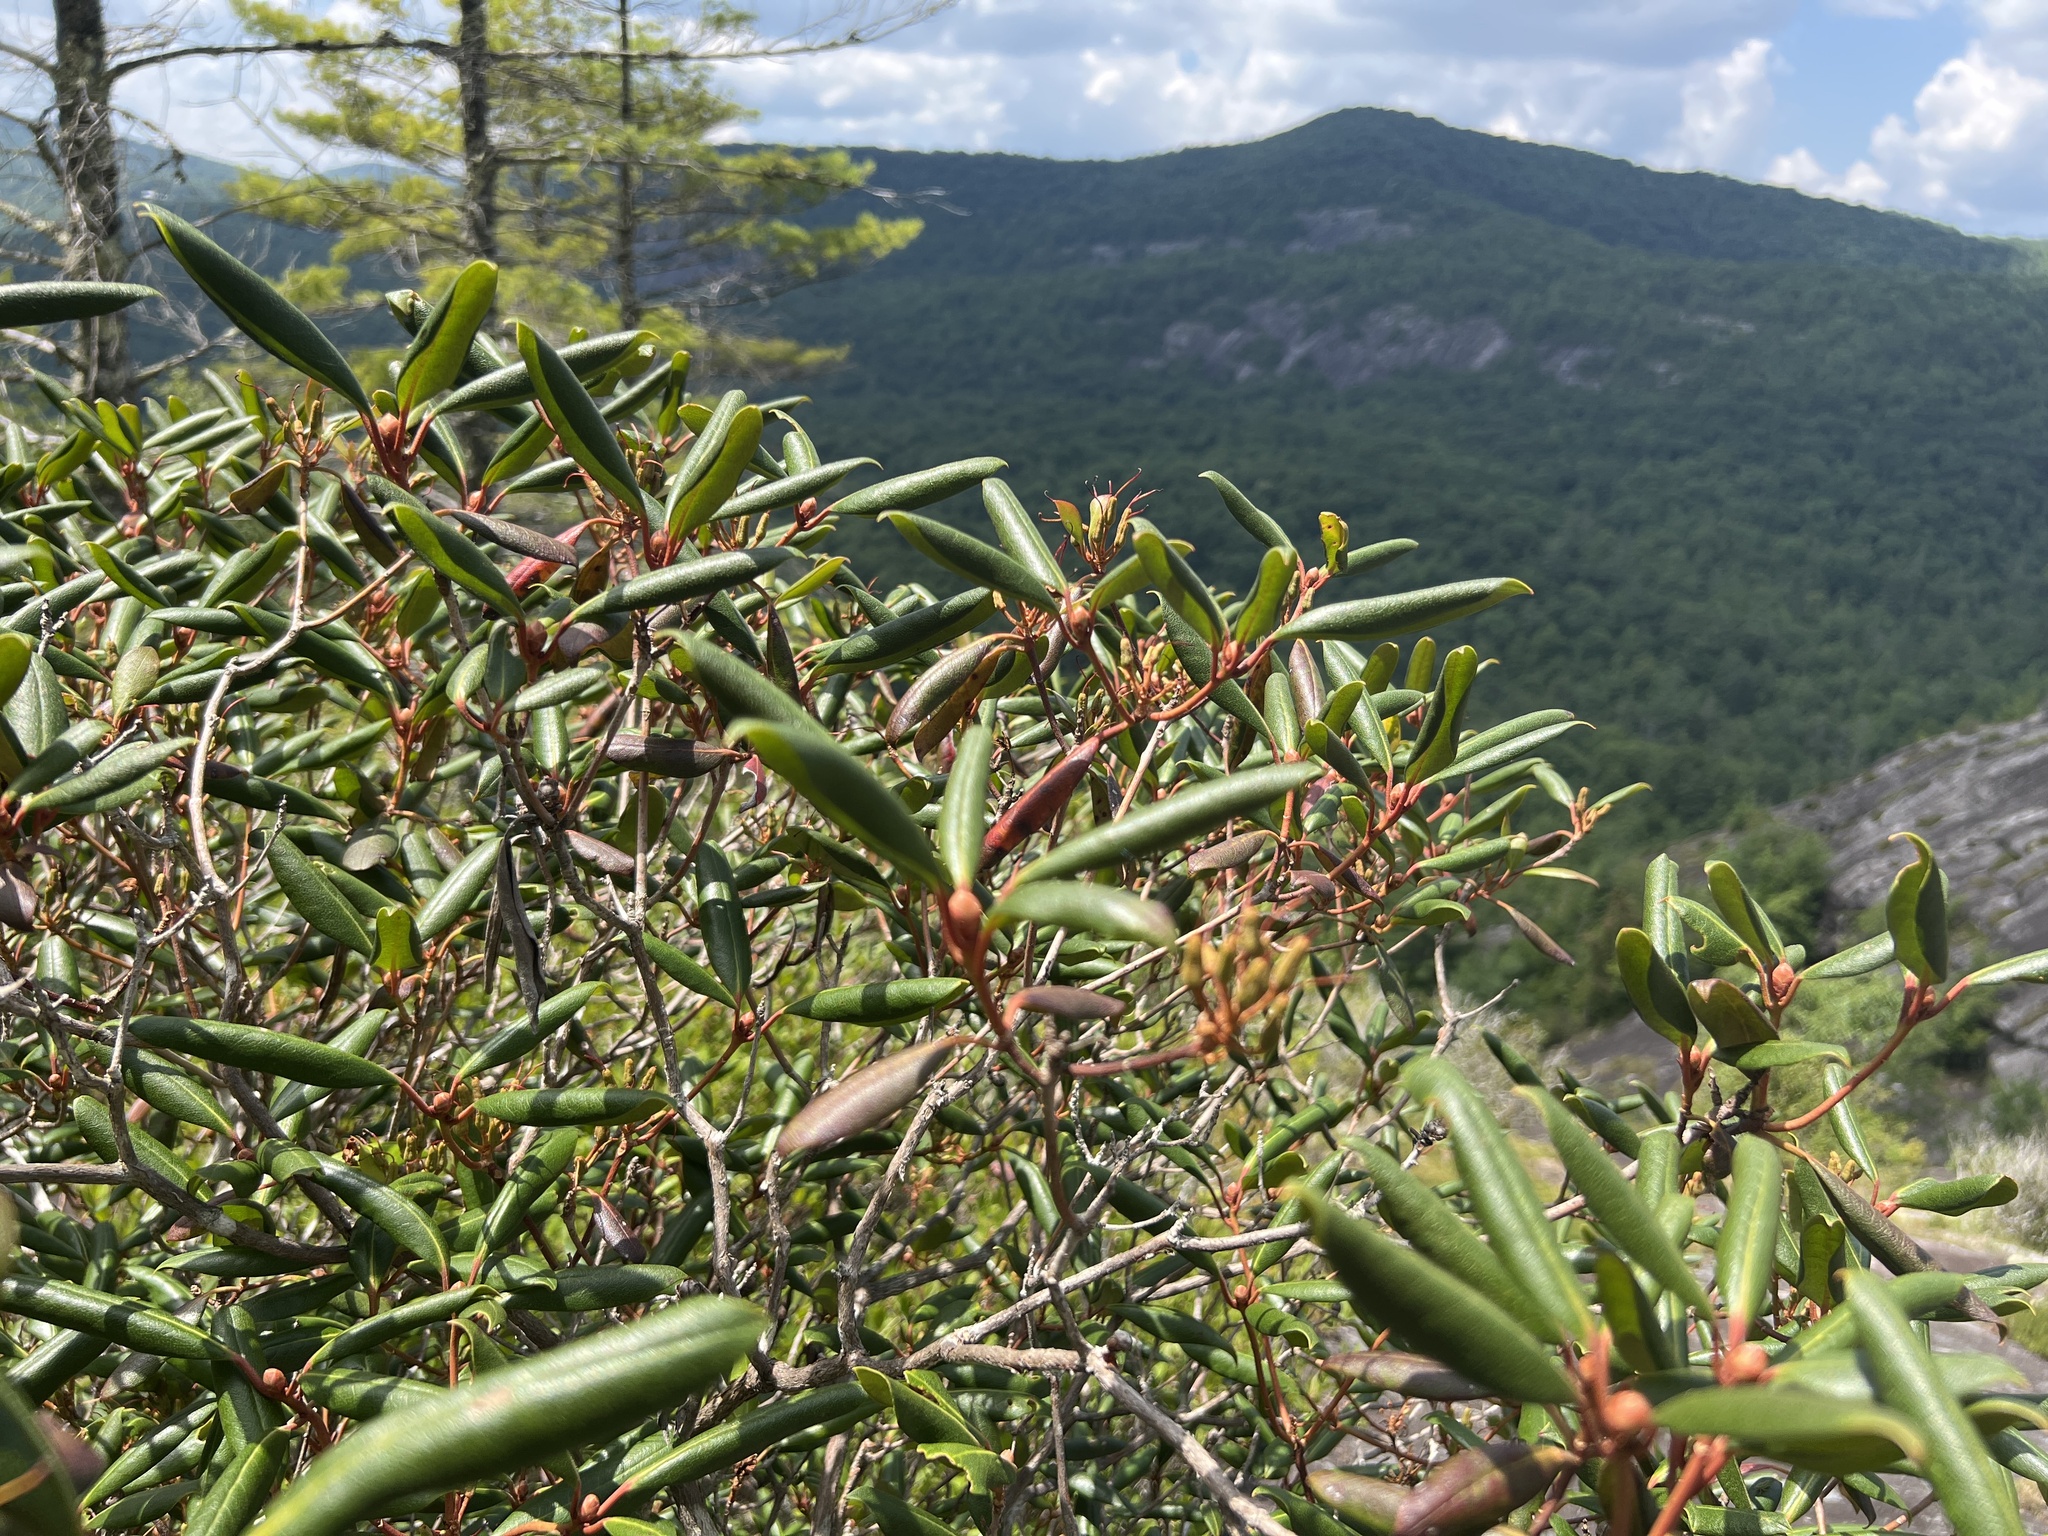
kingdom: Plantae
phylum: Tracheophyta
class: Magnoliopsida
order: Ericales
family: Ericaceae
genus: Rhododendron
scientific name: Rhododendron minus
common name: Piedmont rhododendron
